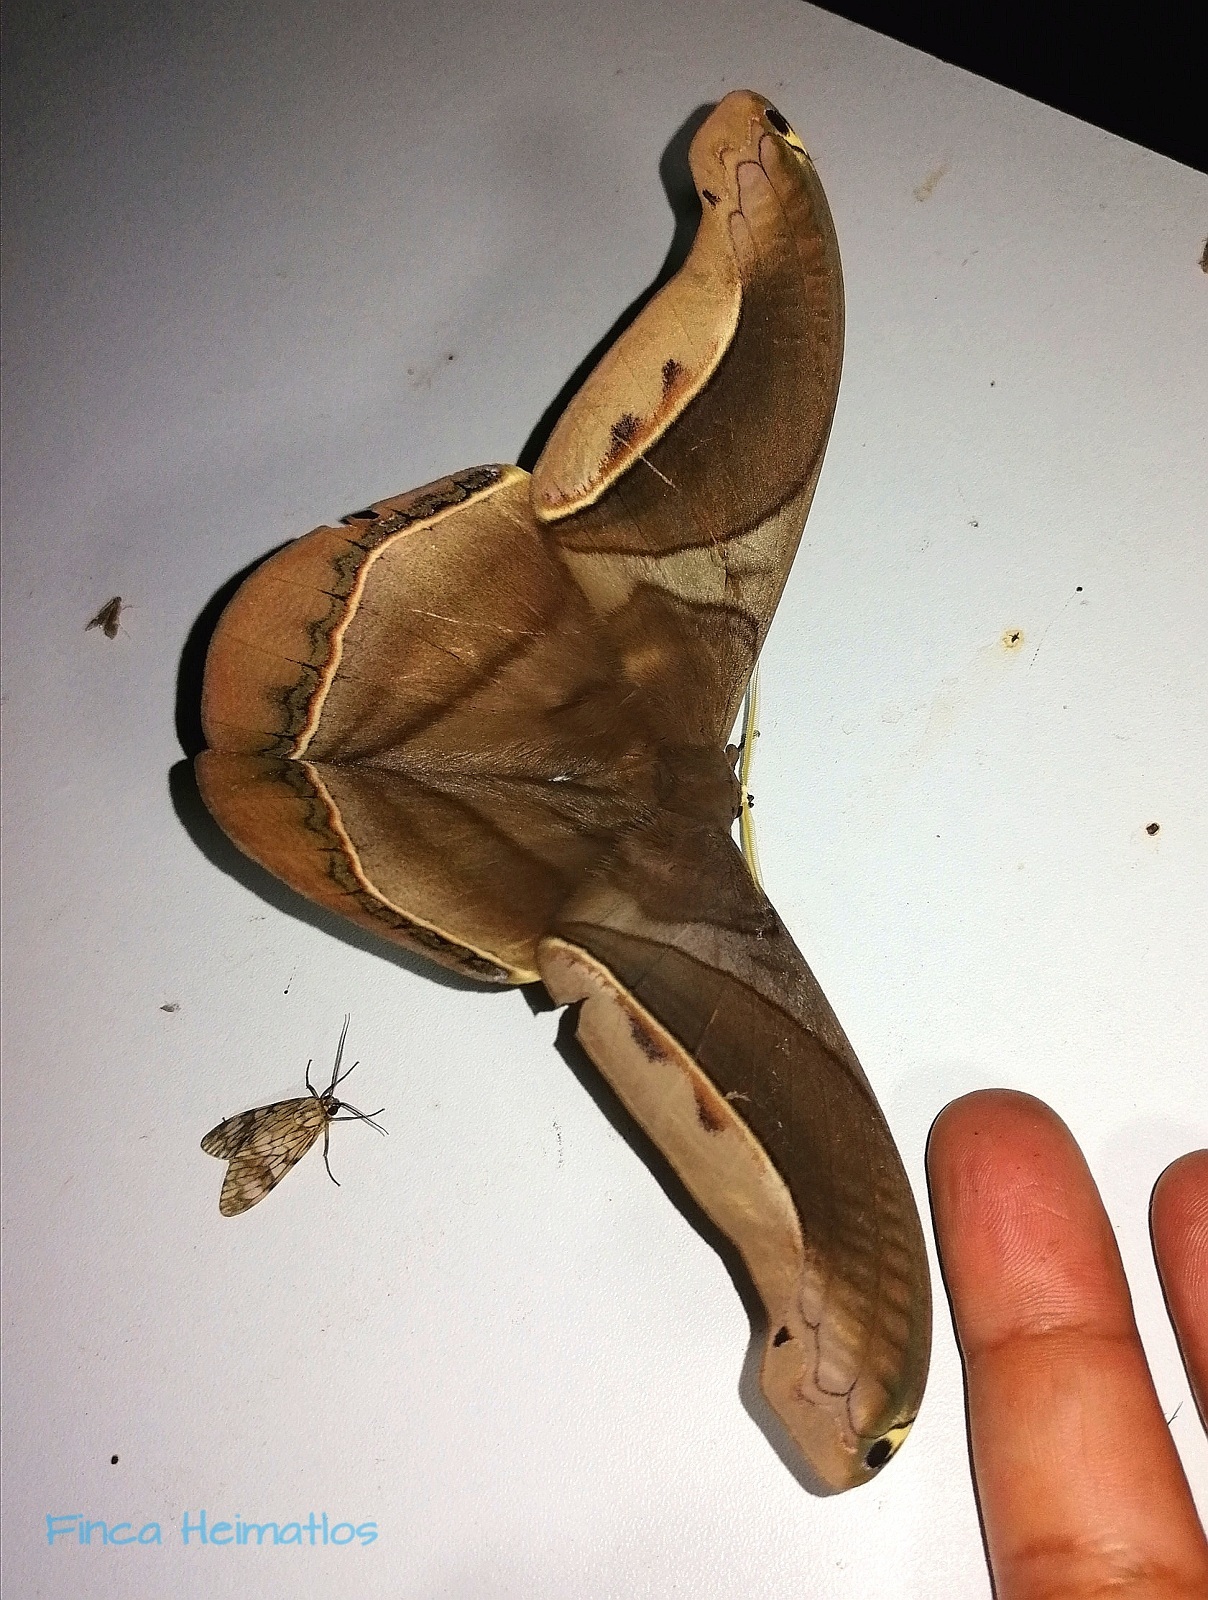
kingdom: Animalia
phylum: Arthropoda
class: Insecta
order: Lepidoptera
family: Saturniidae
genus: Rhescyntis
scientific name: Rhescyntis hippodamia
